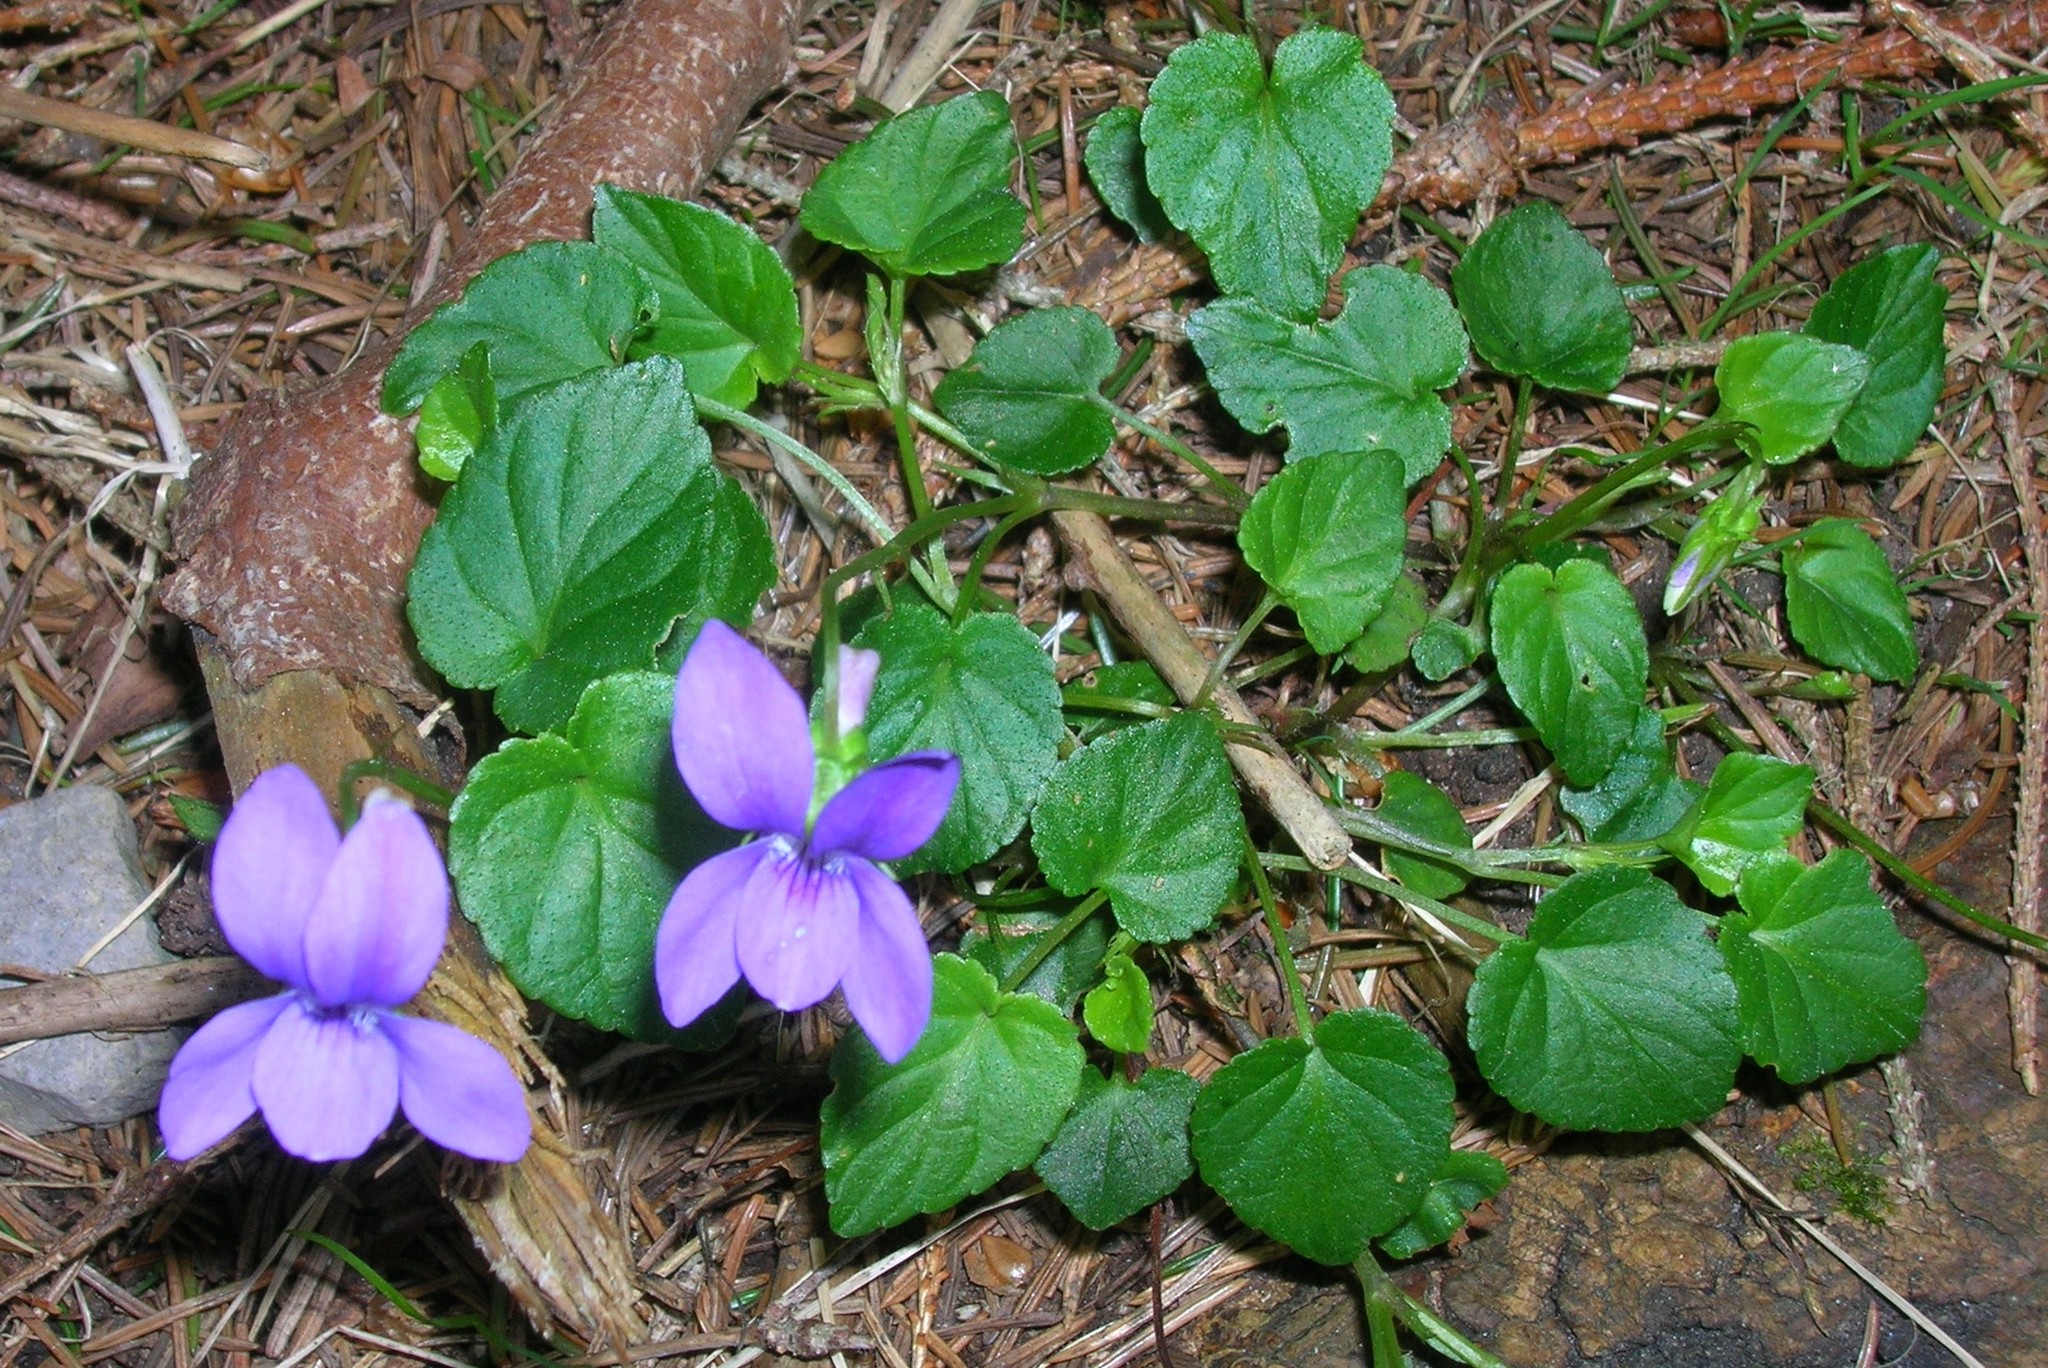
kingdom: Plantae
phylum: Tracheophyta
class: Magnoliopsida
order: Malpighiales
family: Violaceae
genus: Viola
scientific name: Viola riviniana
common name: Common dog-violet
